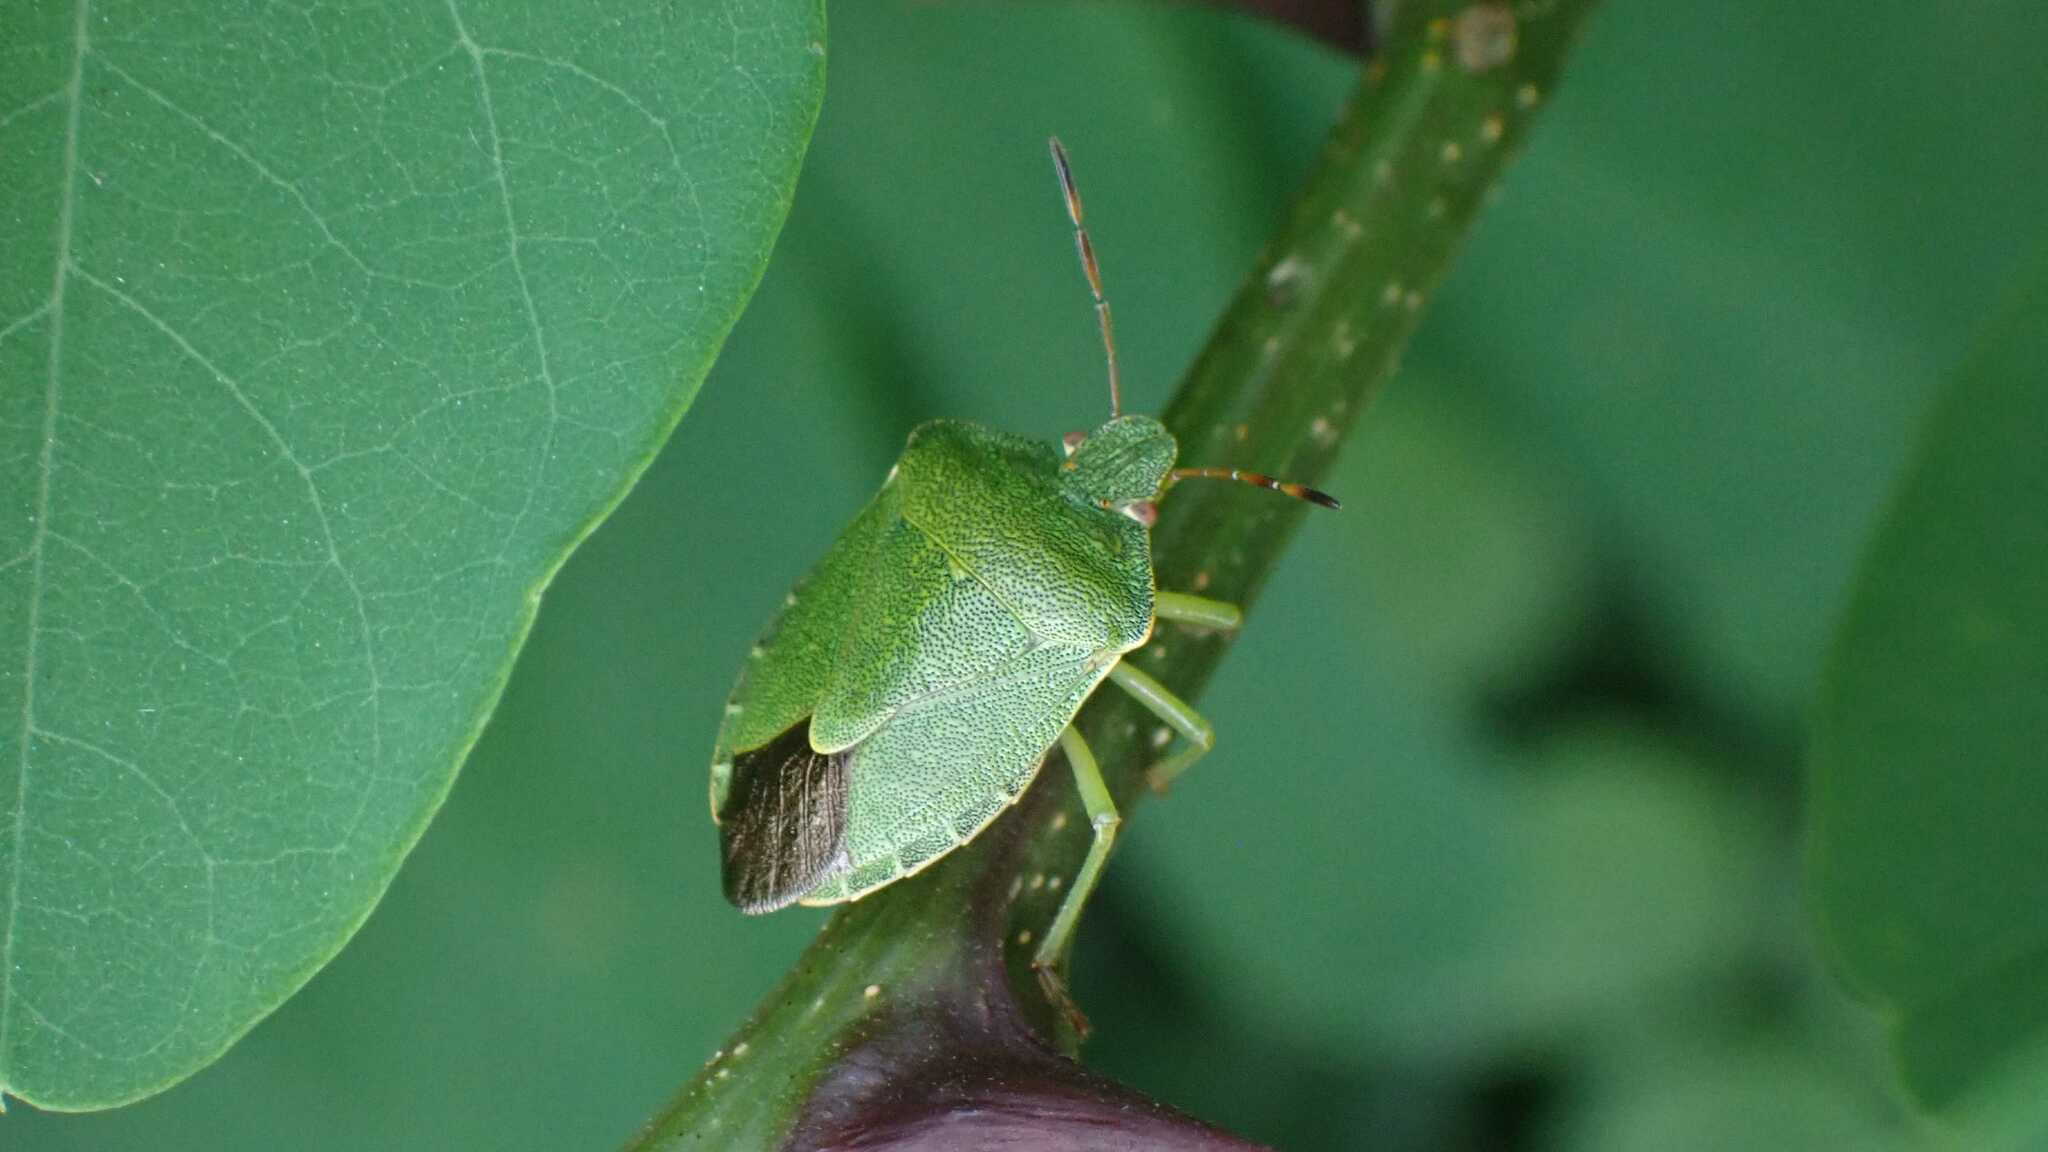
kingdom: Animalia
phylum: Arthropoda
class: Insecta
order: Hemiptera
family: Pentatomidae
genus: Palomena
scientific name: Palomena prasina
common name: Green shieldbug
